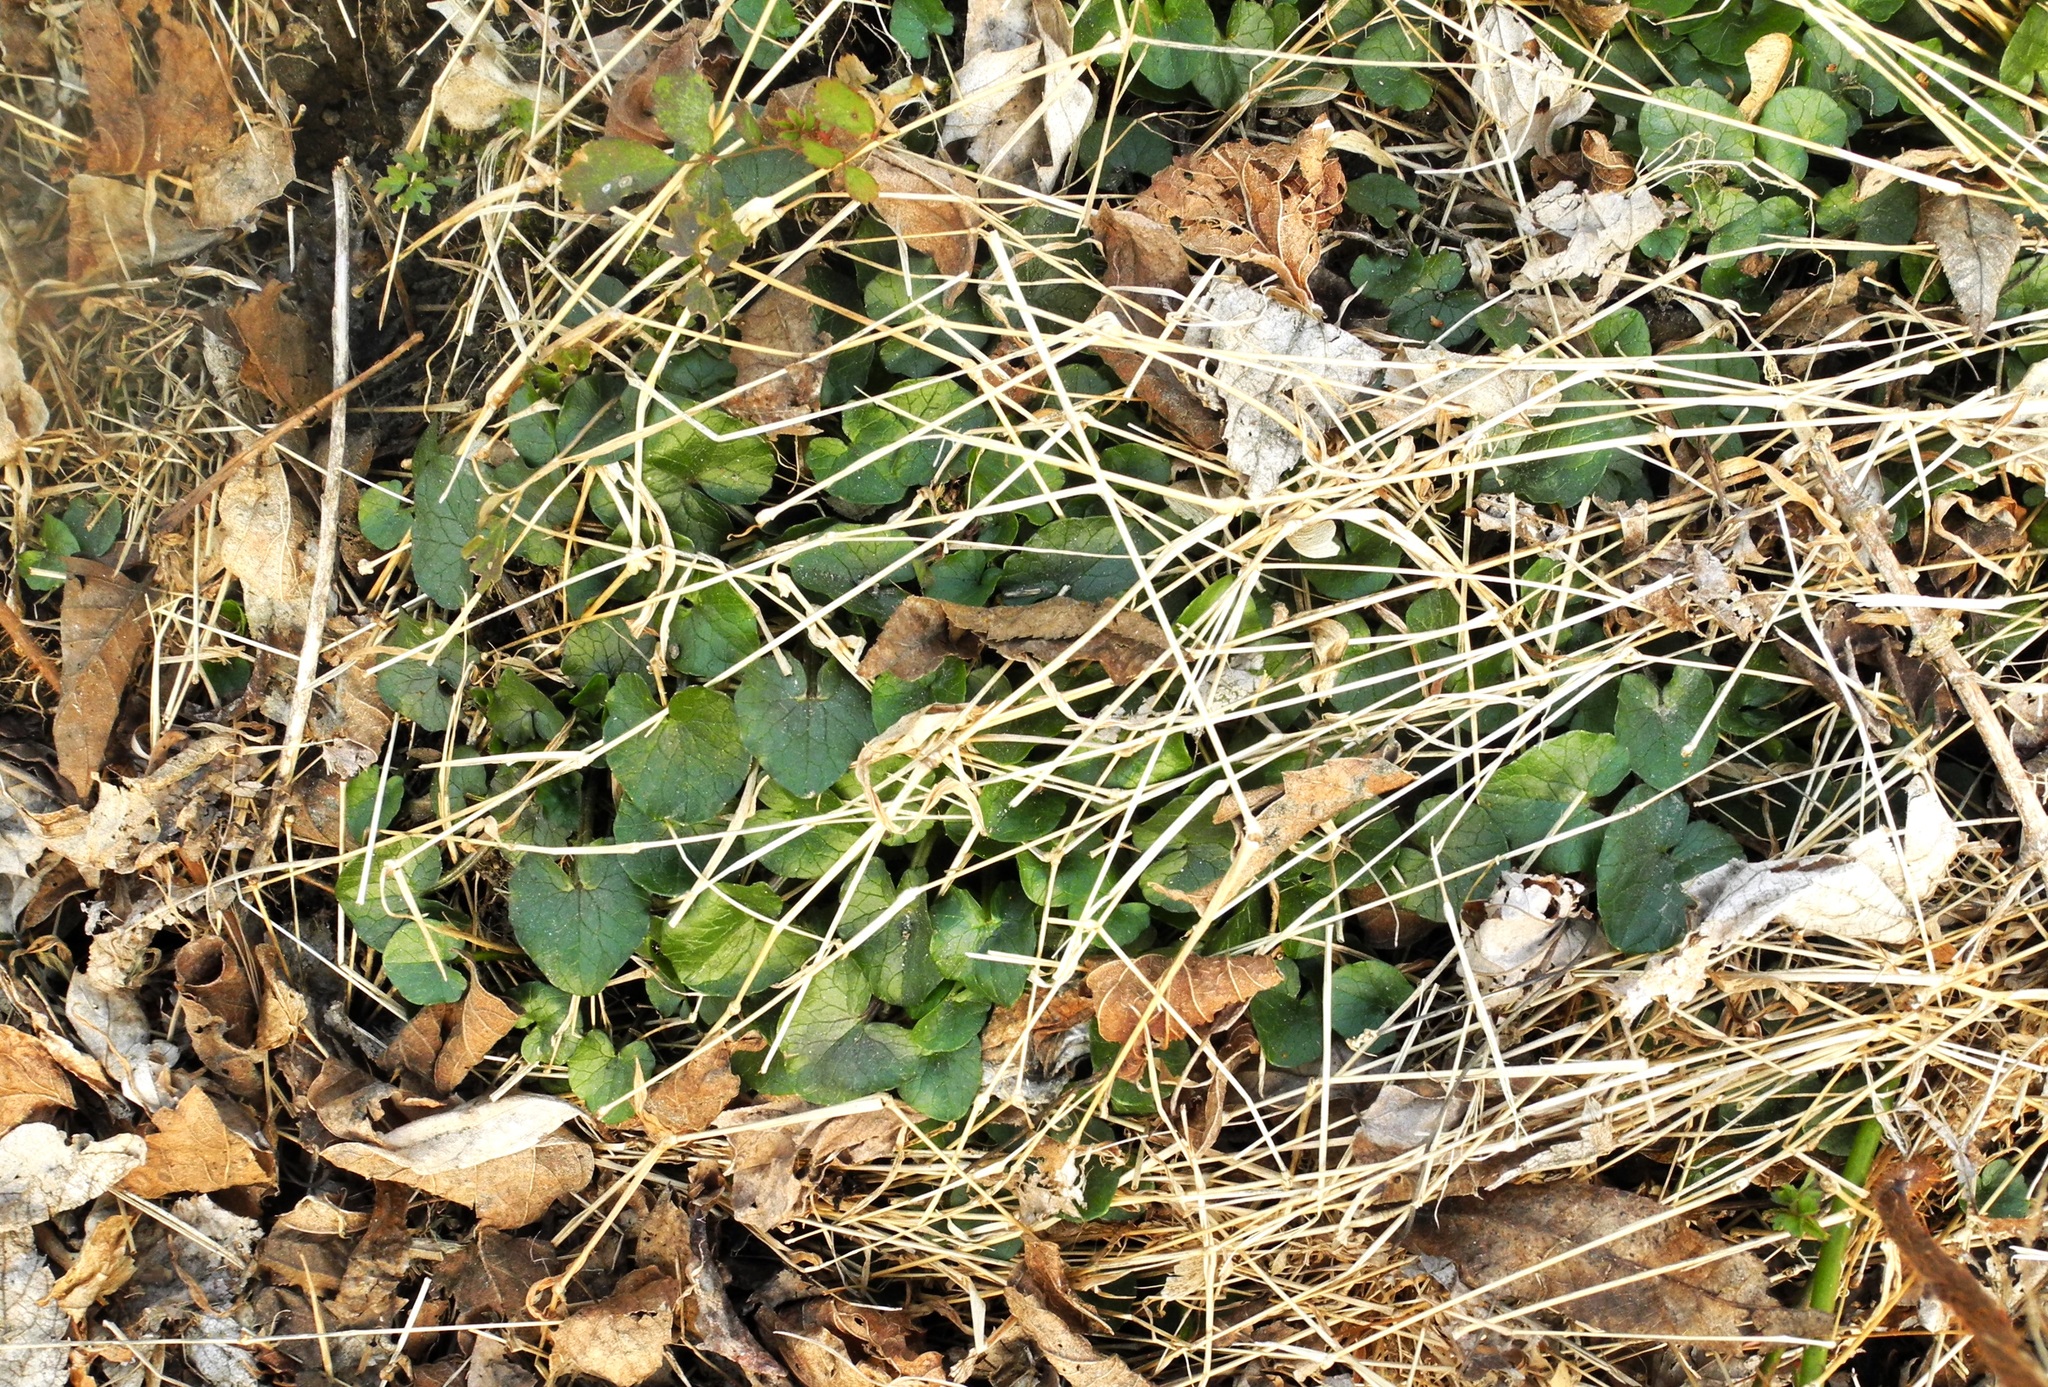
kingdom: Plantae
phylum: Tracheophyta
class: Magnoliopsida
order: Ranunculales
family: Ranunculaceae
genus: Ficaria
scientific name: Ficaria verna
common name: Lesser celandine
